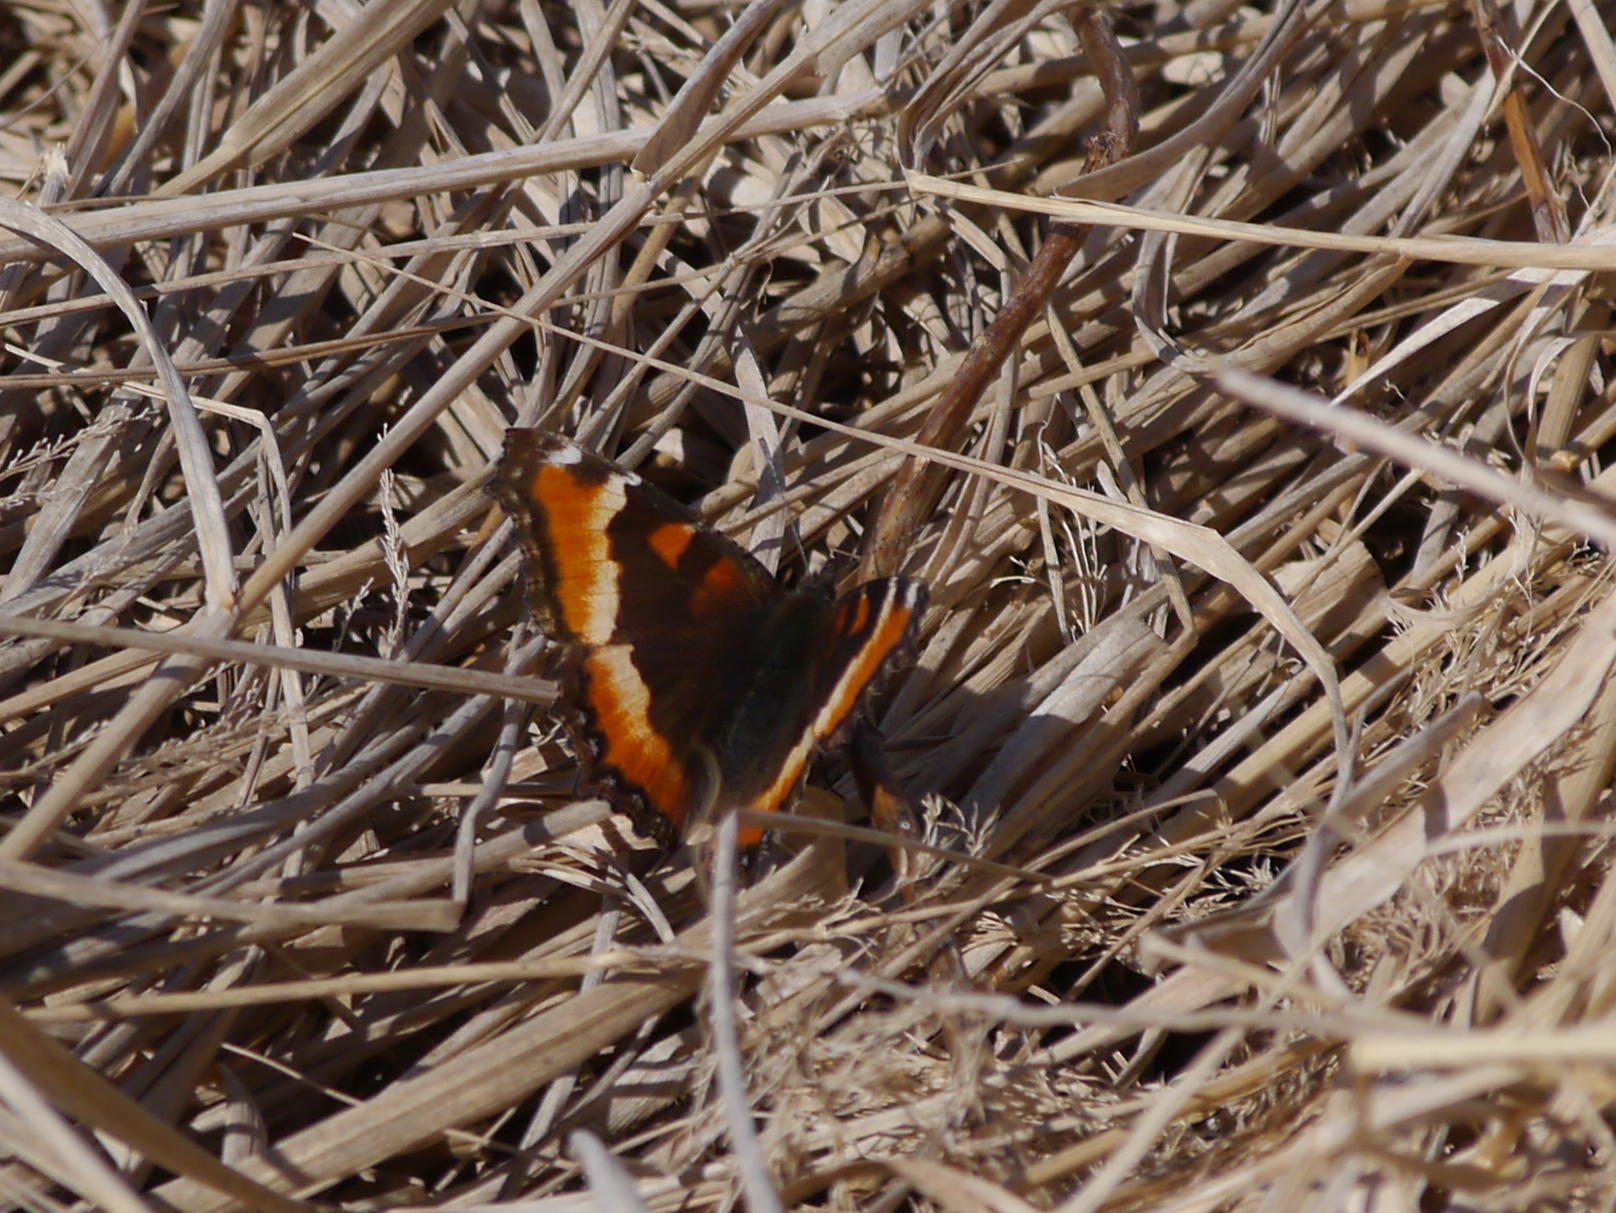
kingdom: Animalia
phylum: Arthropoda
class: Insecta
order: Lepidoptera
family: Nymphalidae
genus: Aglais
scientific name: Aglais milberti
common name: Milbert's tortoiseshell
